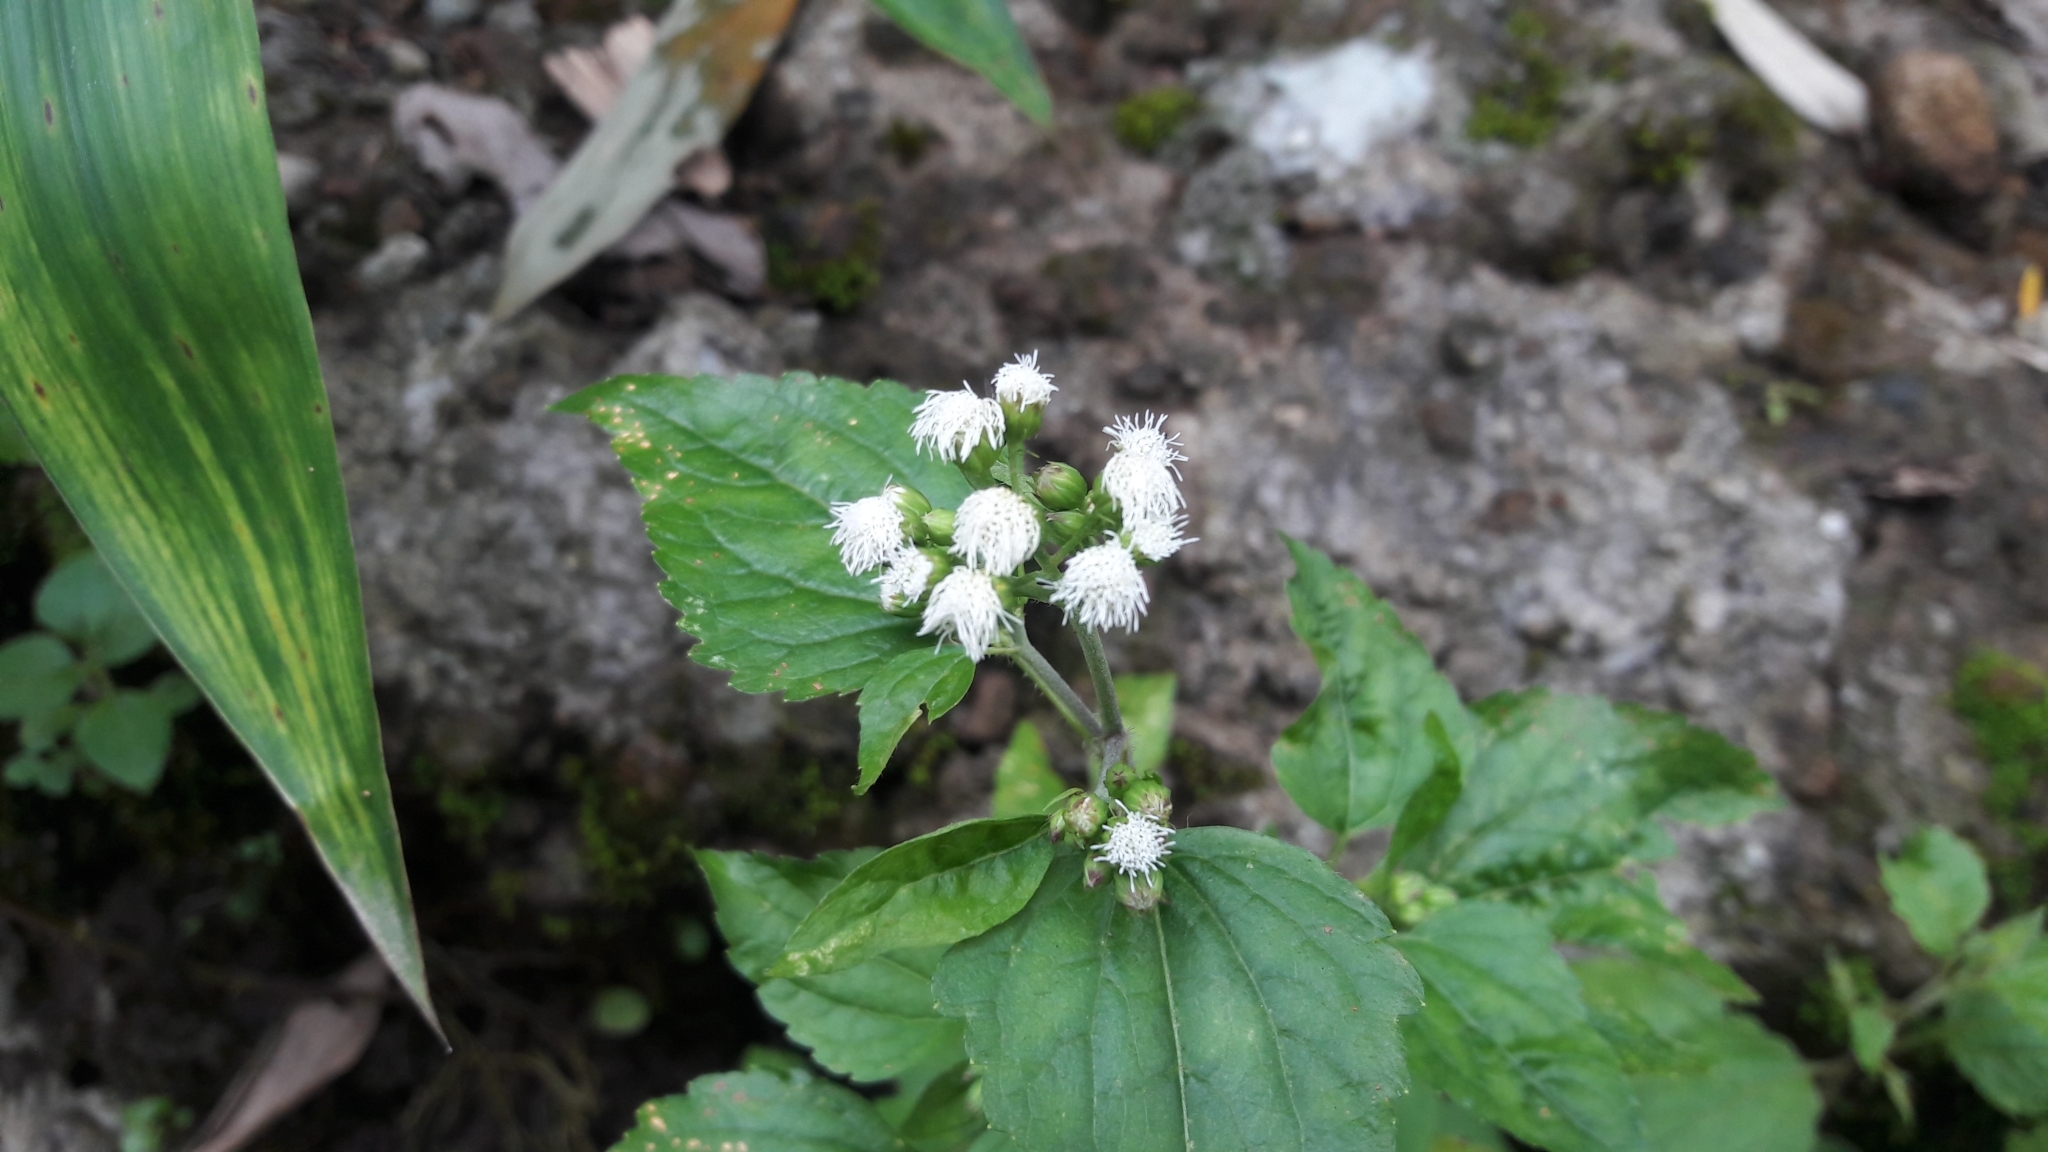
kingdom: Plantae
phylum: Tracheophyta
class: Magnoliopsida
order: Asterales
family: Asteraceae
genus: Ageratum
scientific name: Ageratum conyzoides
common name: Tropical whiteweed
